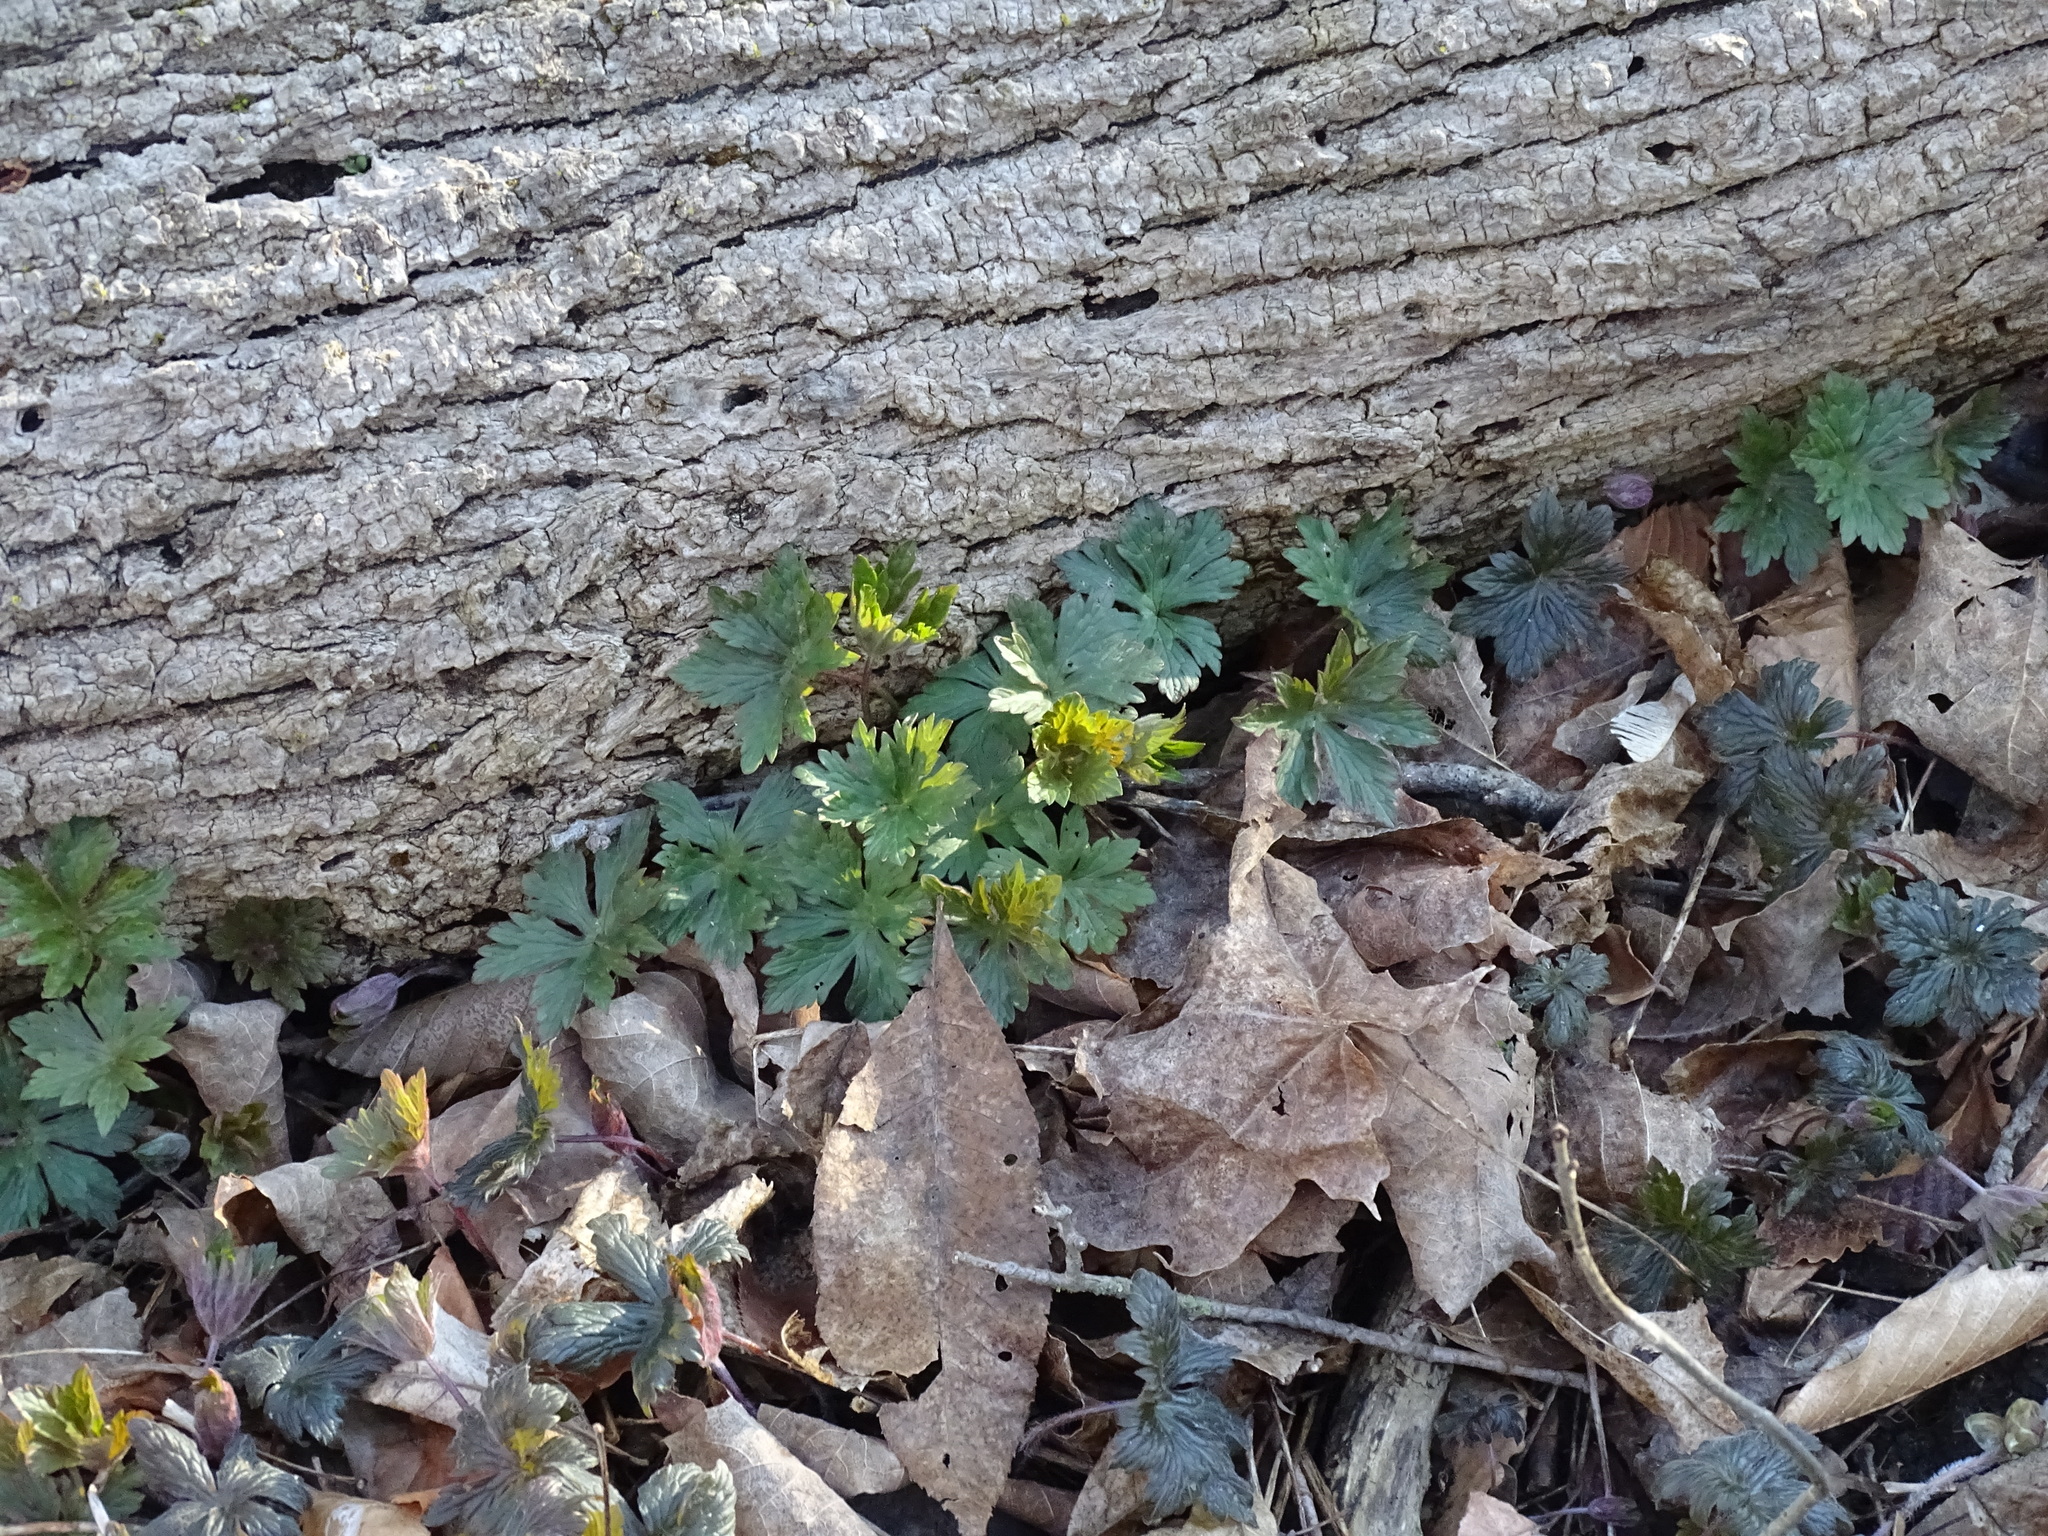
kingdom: Plantae
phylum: Tracheophyta
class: Magnoliopsida
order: Geraniales
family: Geraniaceae
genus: Geranium
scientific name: Geranium maculatum
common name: Spotted geranium
